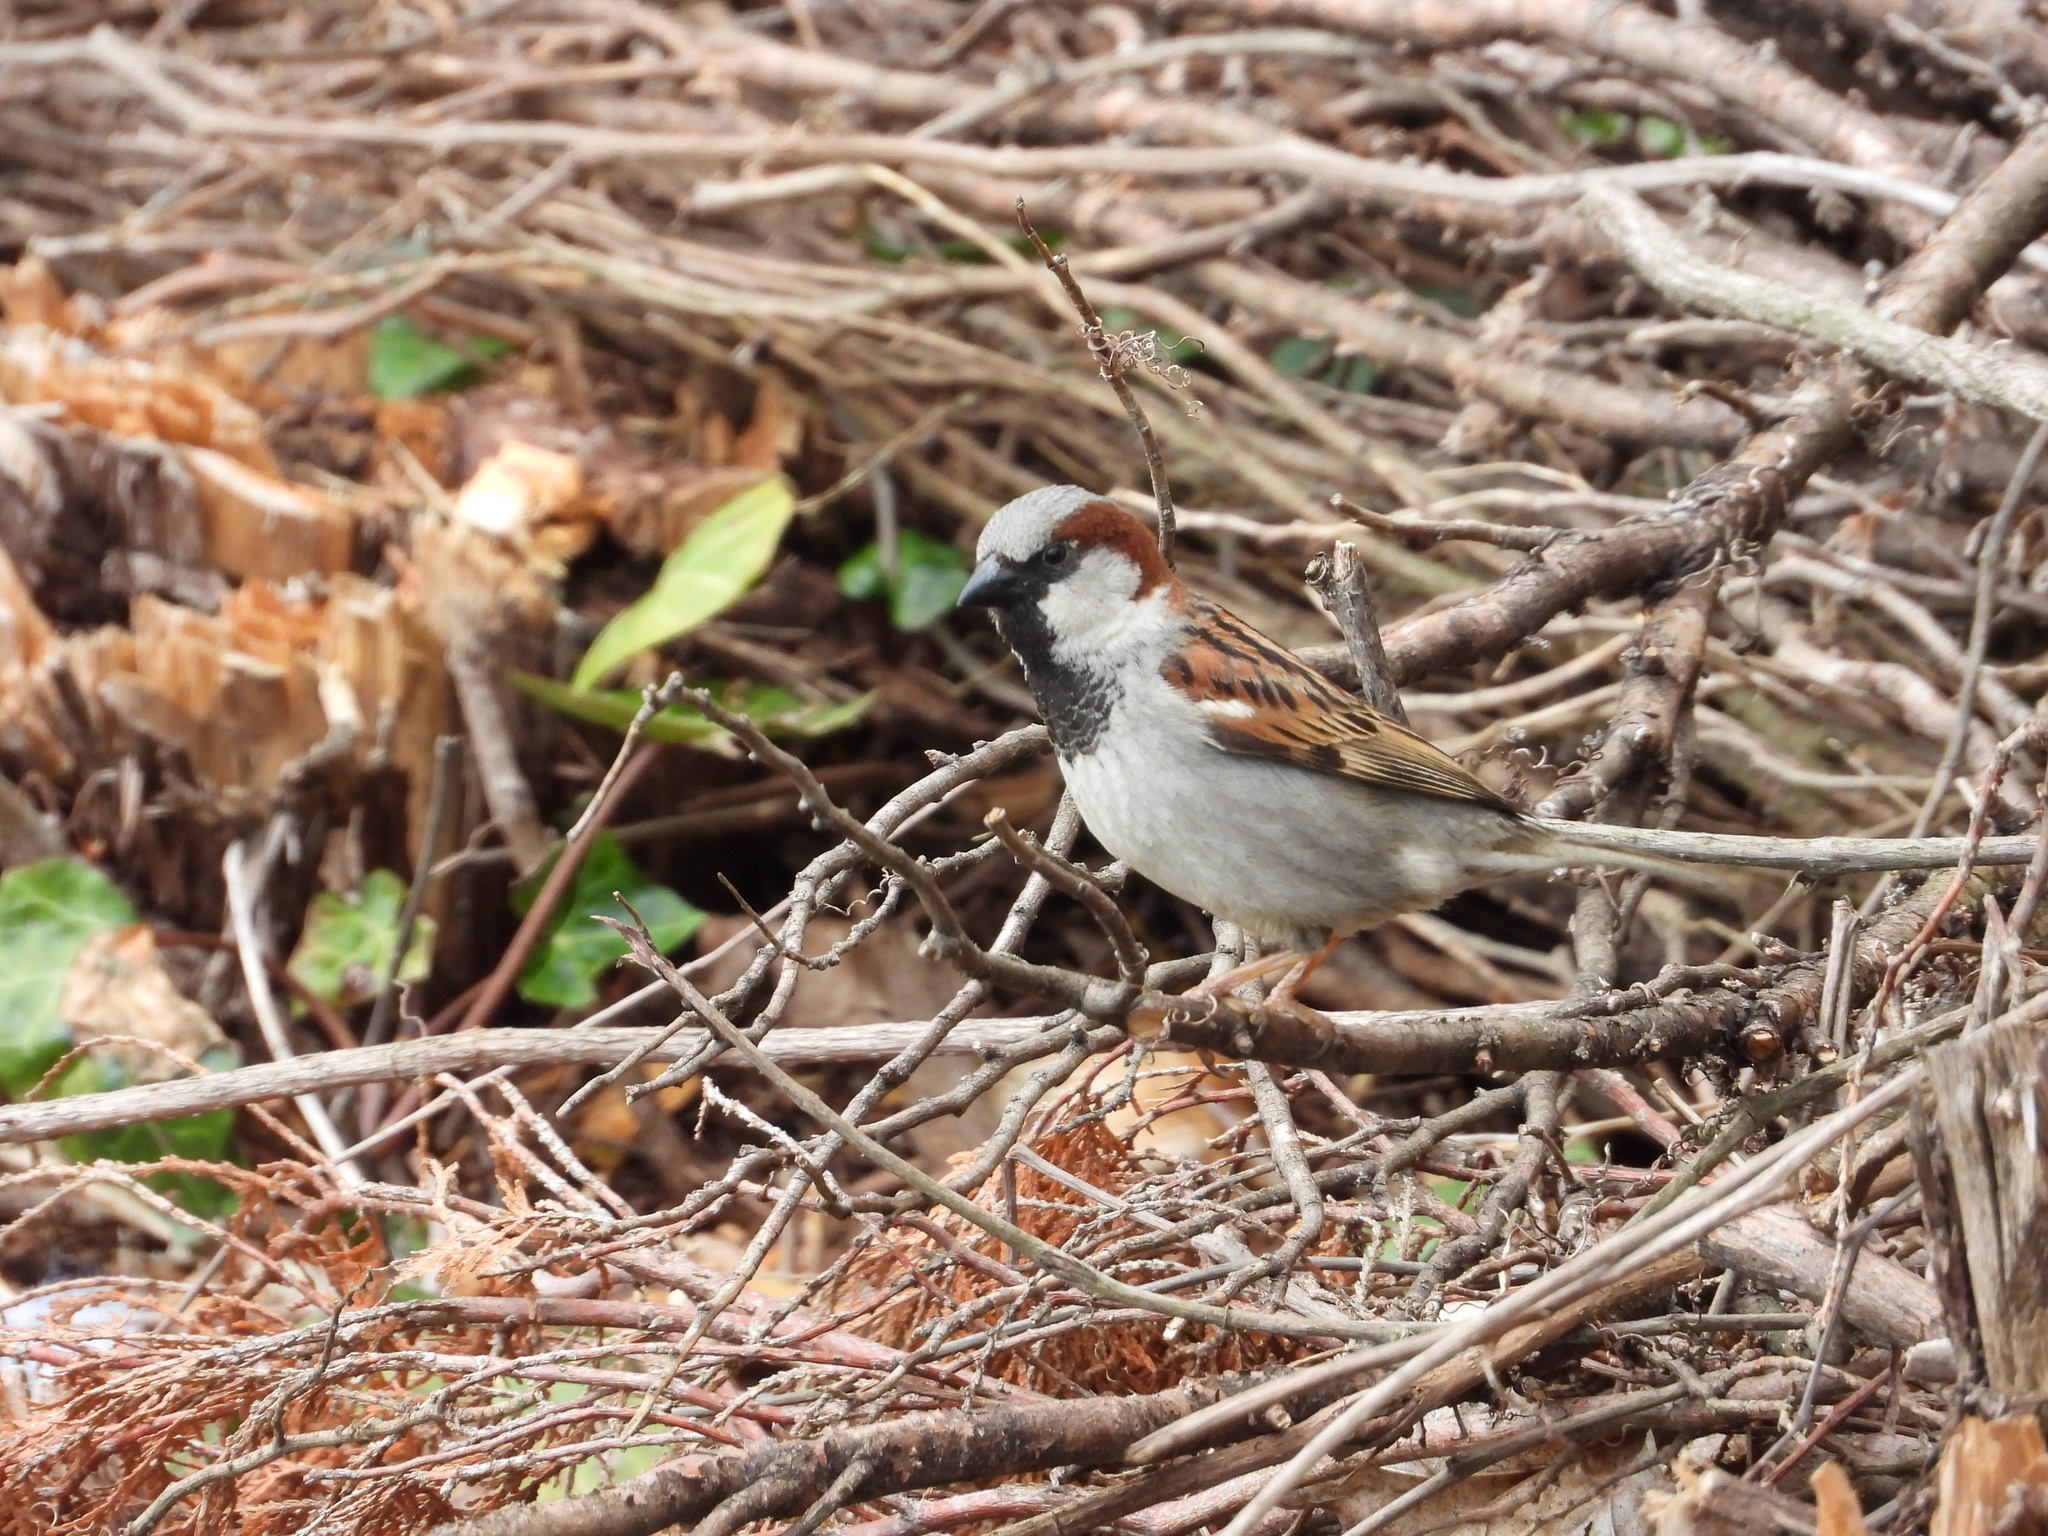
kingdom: Animalia
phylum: Chordata
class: Aves
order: Passeriformes
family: Passeridae
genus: Passer
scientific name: Passer domesticus
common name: House sparrow
